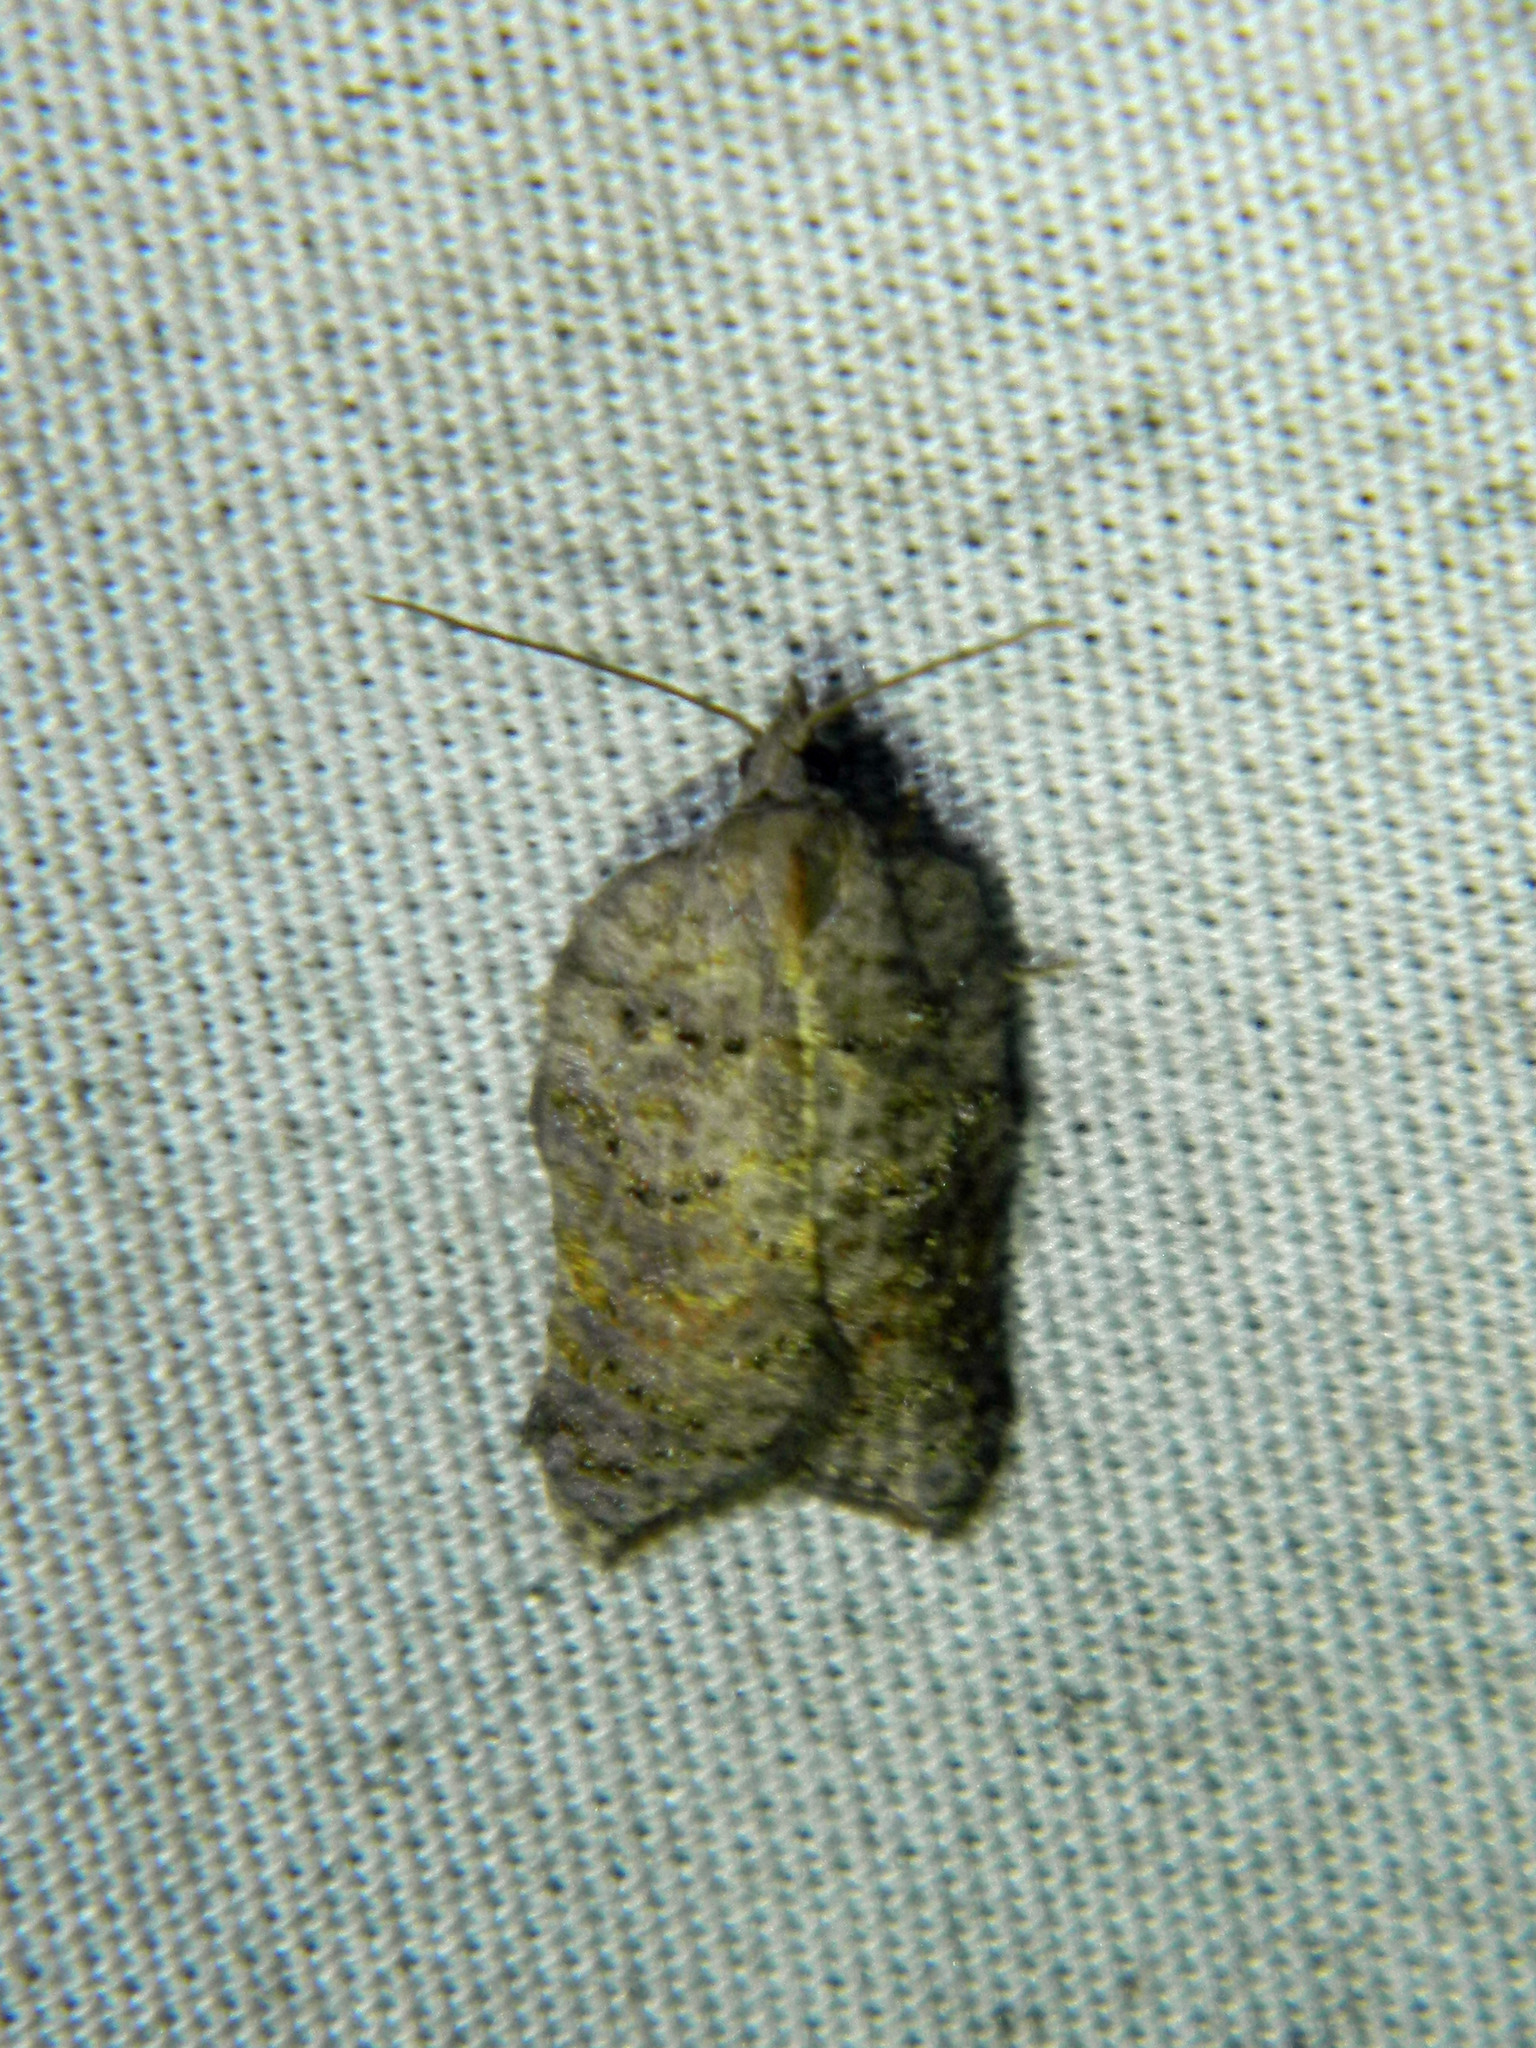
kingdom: Animalia
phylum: Arthropoda
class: Insecta
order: Lepidoptera
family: Tortricidae
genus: Acleris
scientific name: Acleris effractana
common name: Hook-winged tortrix moth
